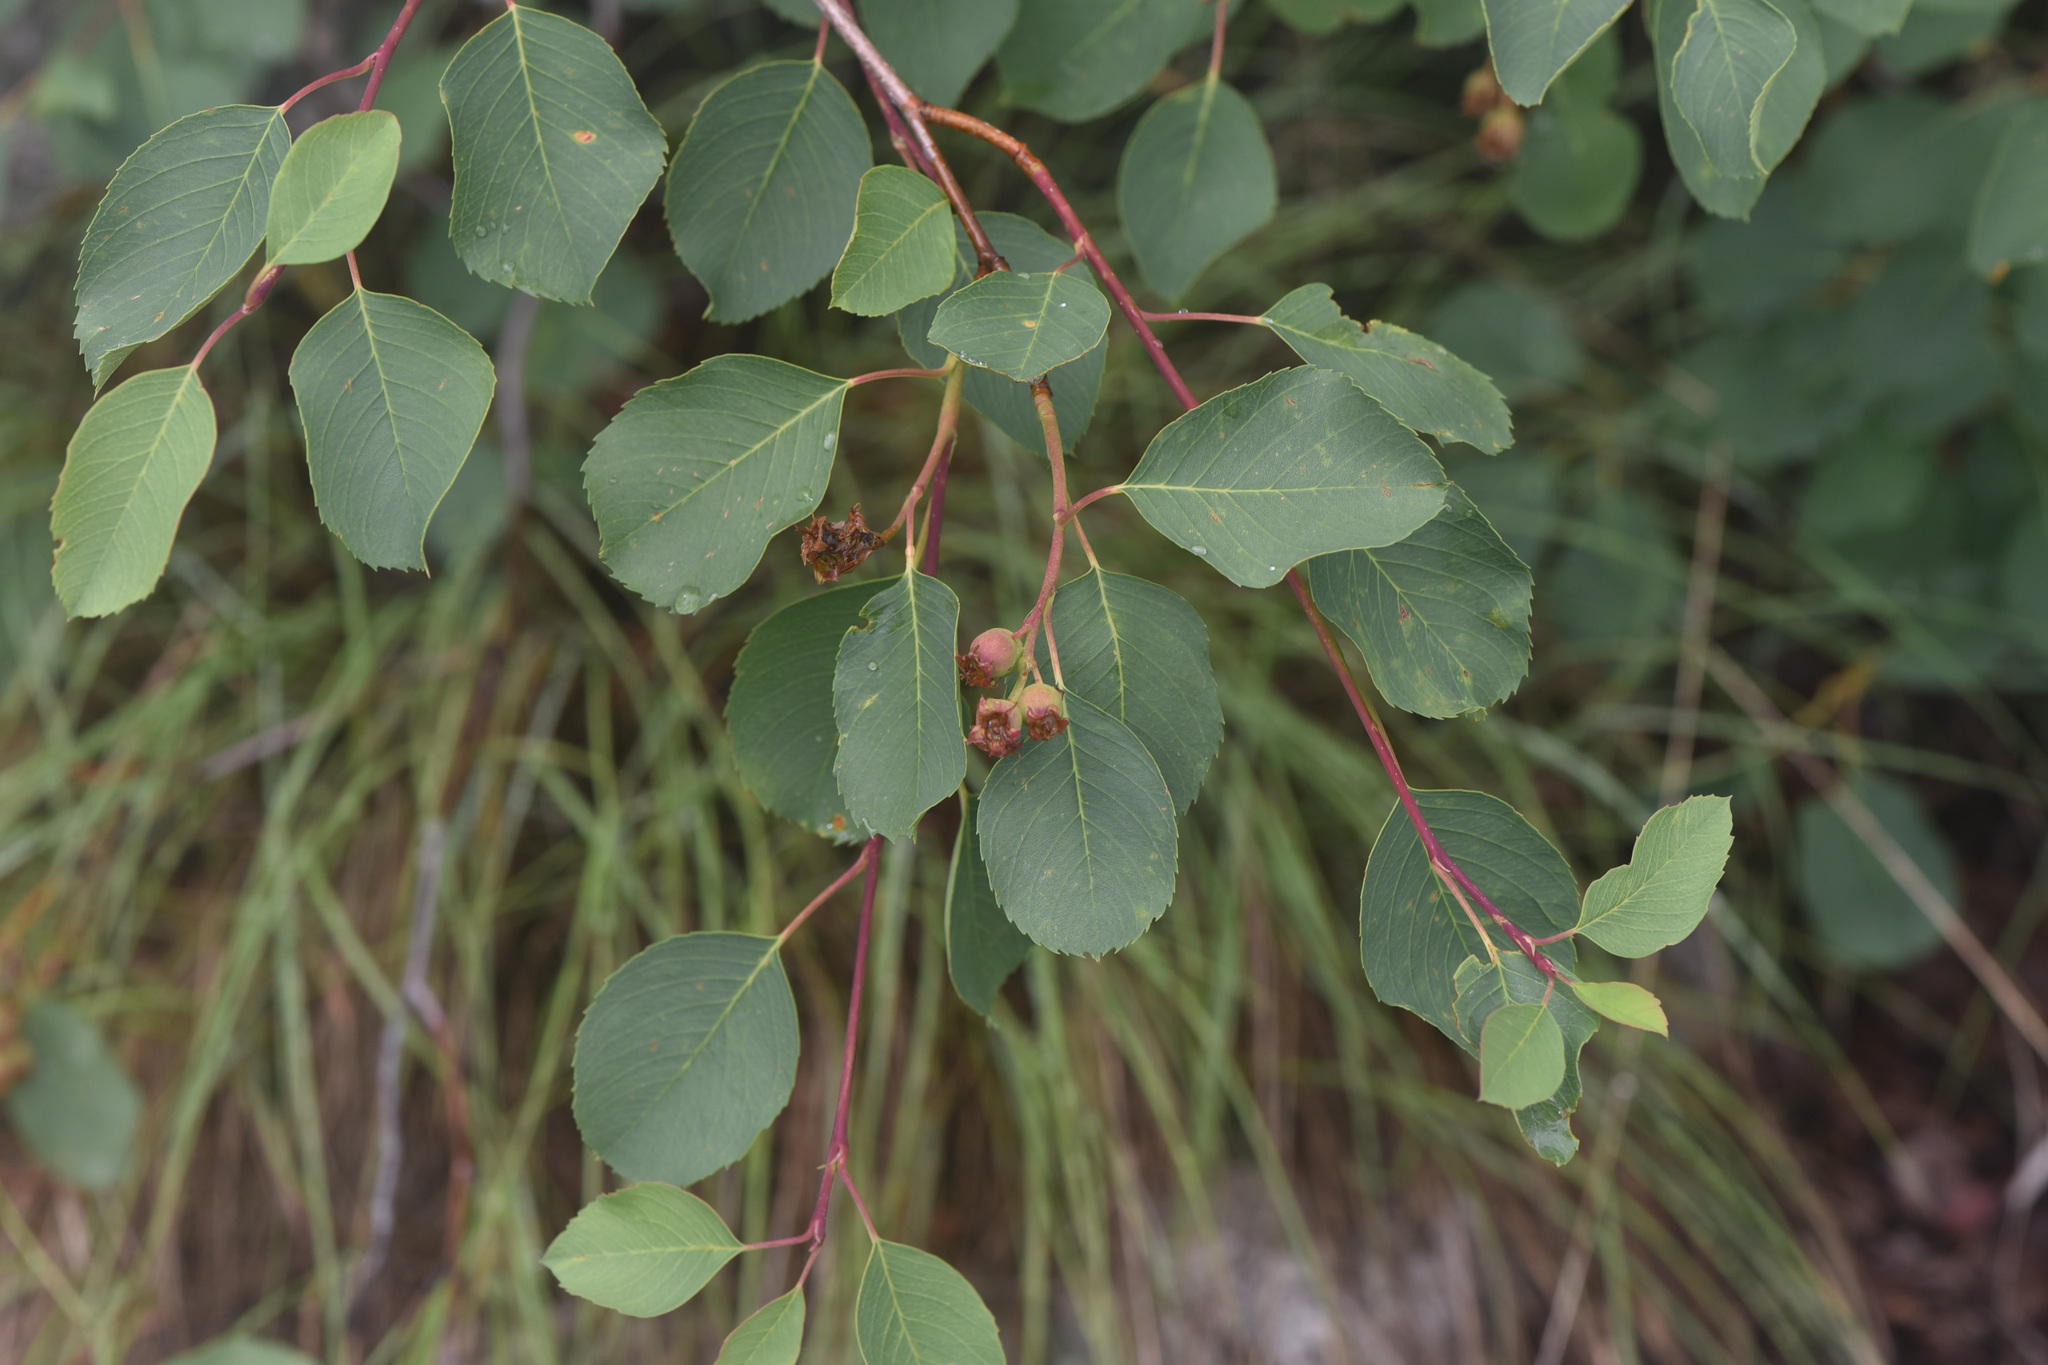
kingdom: Plantae
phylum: Tracheophyta
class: Magnoliopsida
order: Rosales
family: Rosaceae
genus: Amelanchier
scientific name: Amelanchier alnifolia
